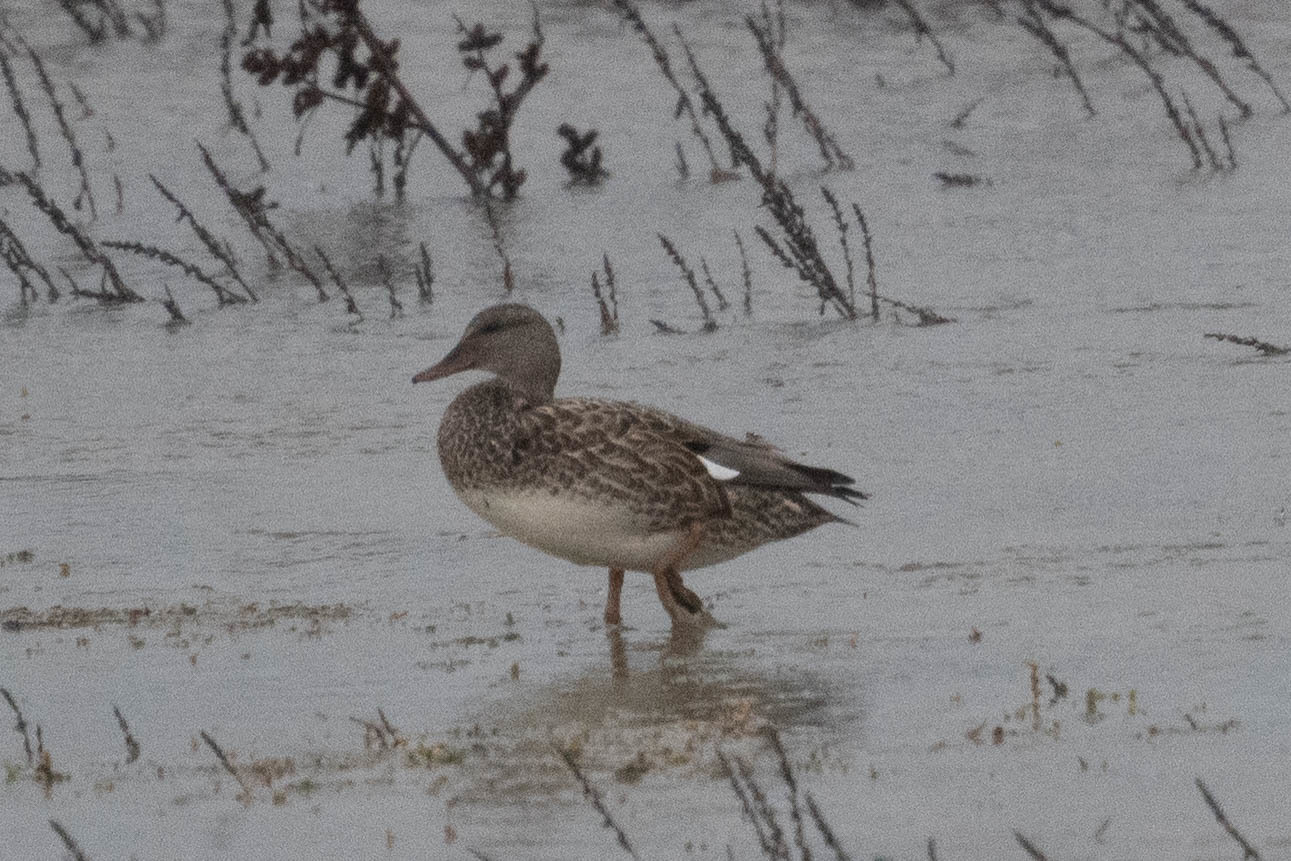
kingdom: Animalia
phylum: Chordata
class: Aves
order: Anseriformes
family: Anatidae
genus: Mareca
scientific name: Mareca strepera
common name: Gadwall
